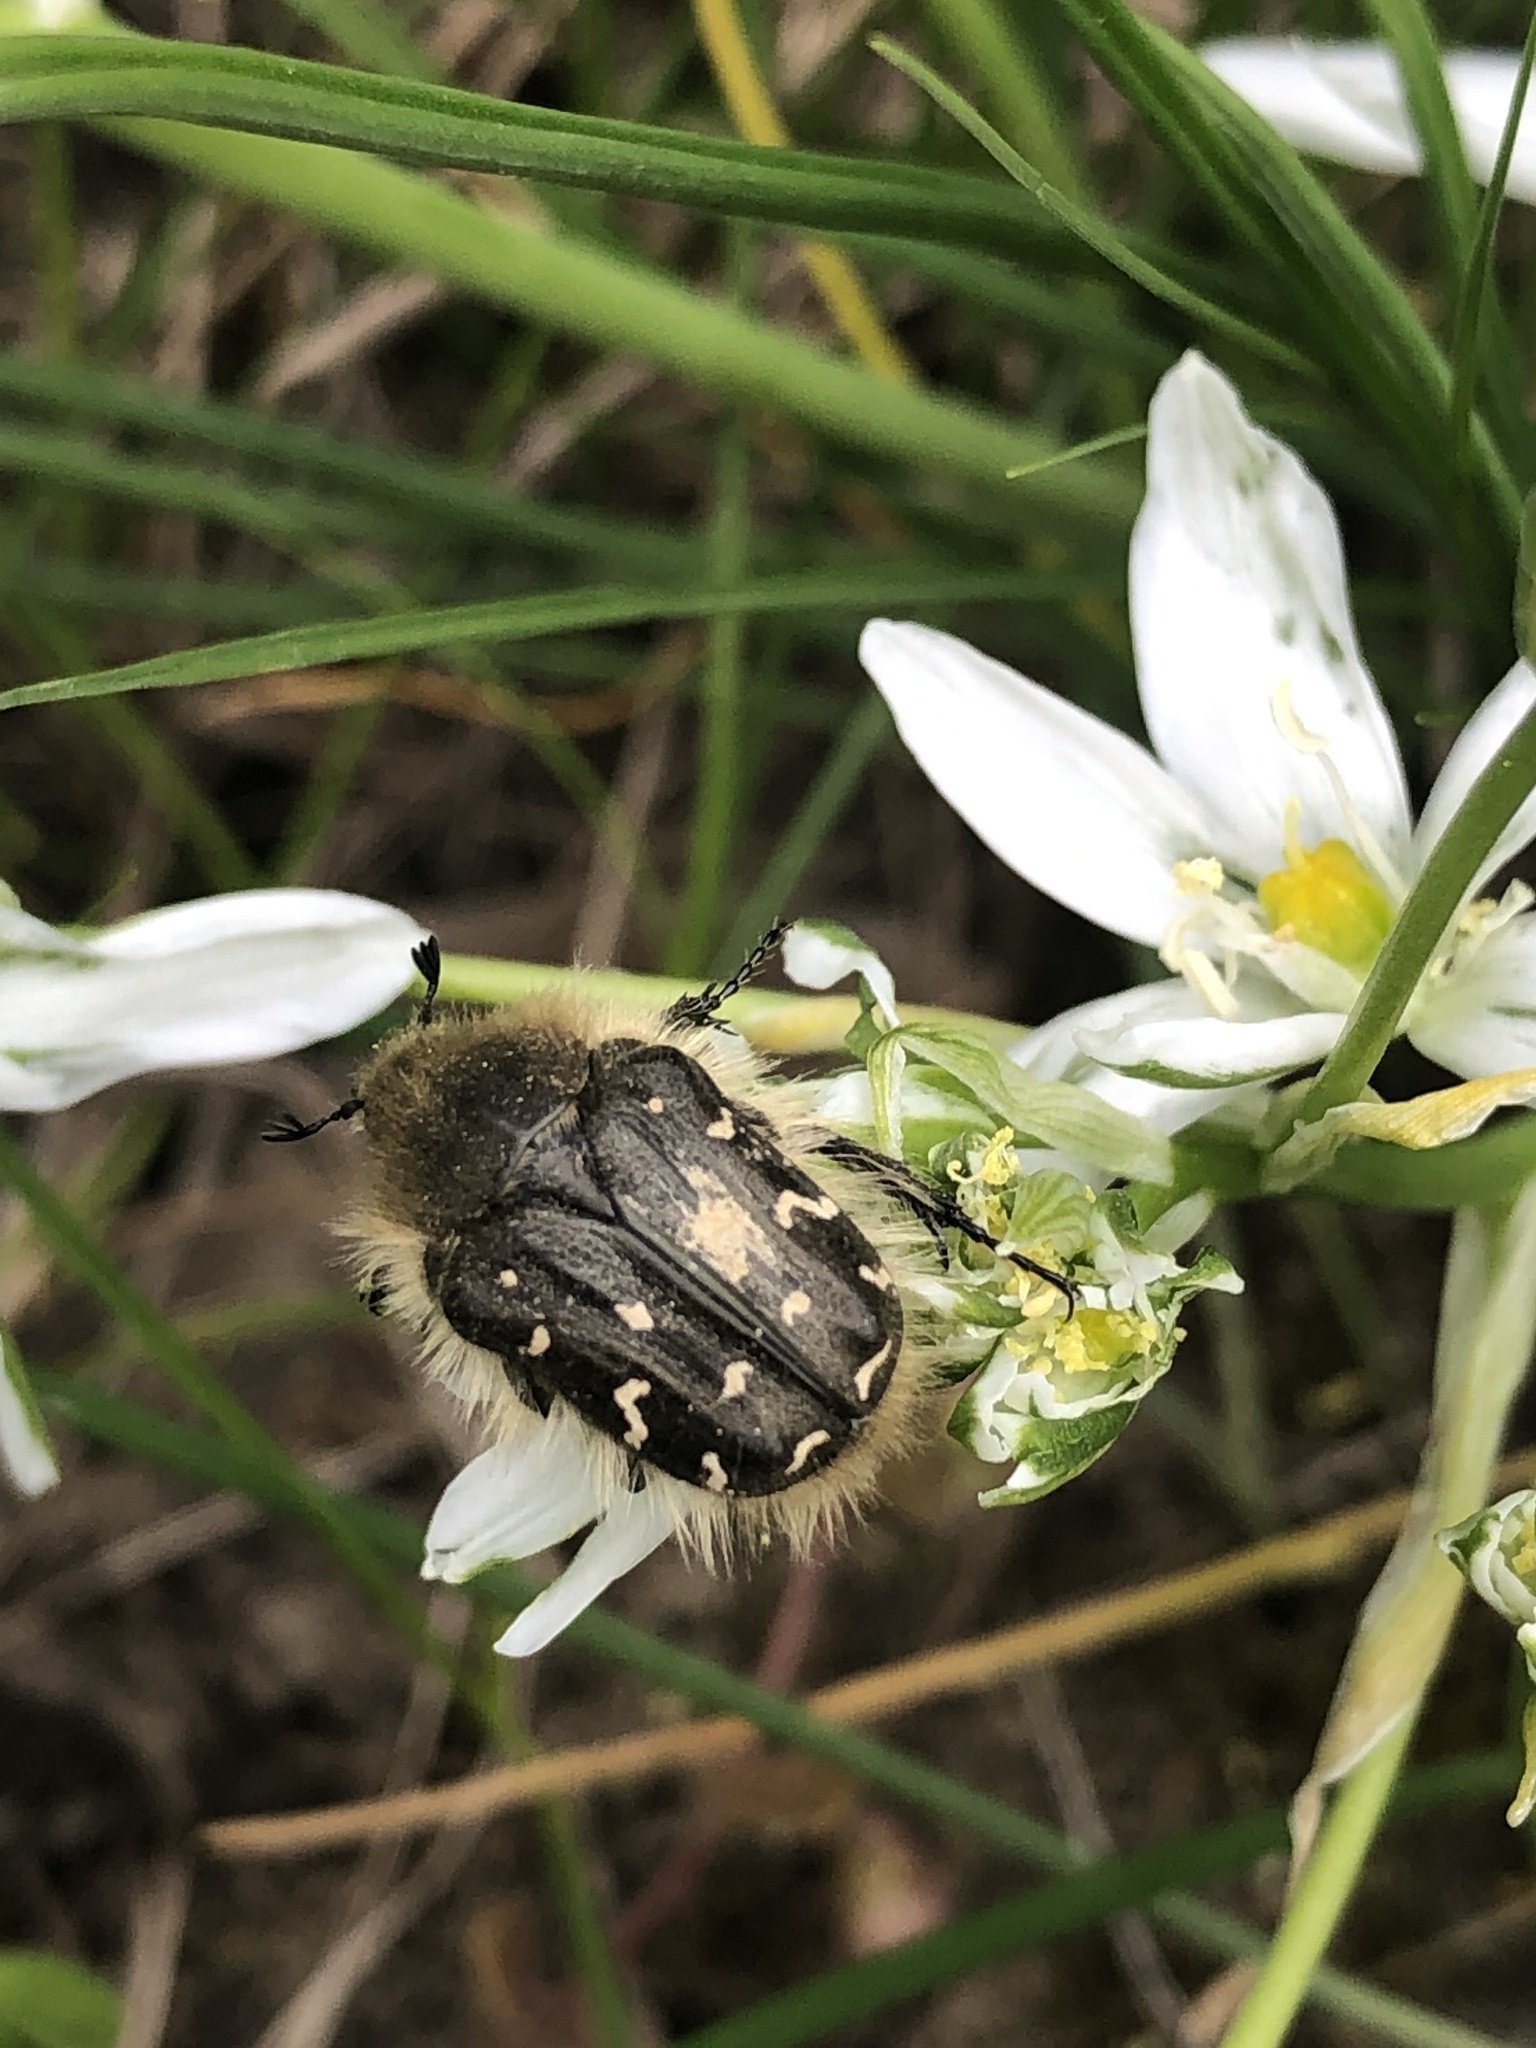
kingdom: Animalia
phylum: Arthropoda
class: Insecta
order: Coleoptera
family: Scarabaeidae
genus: Tropinota
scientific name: Tropinota hirta
